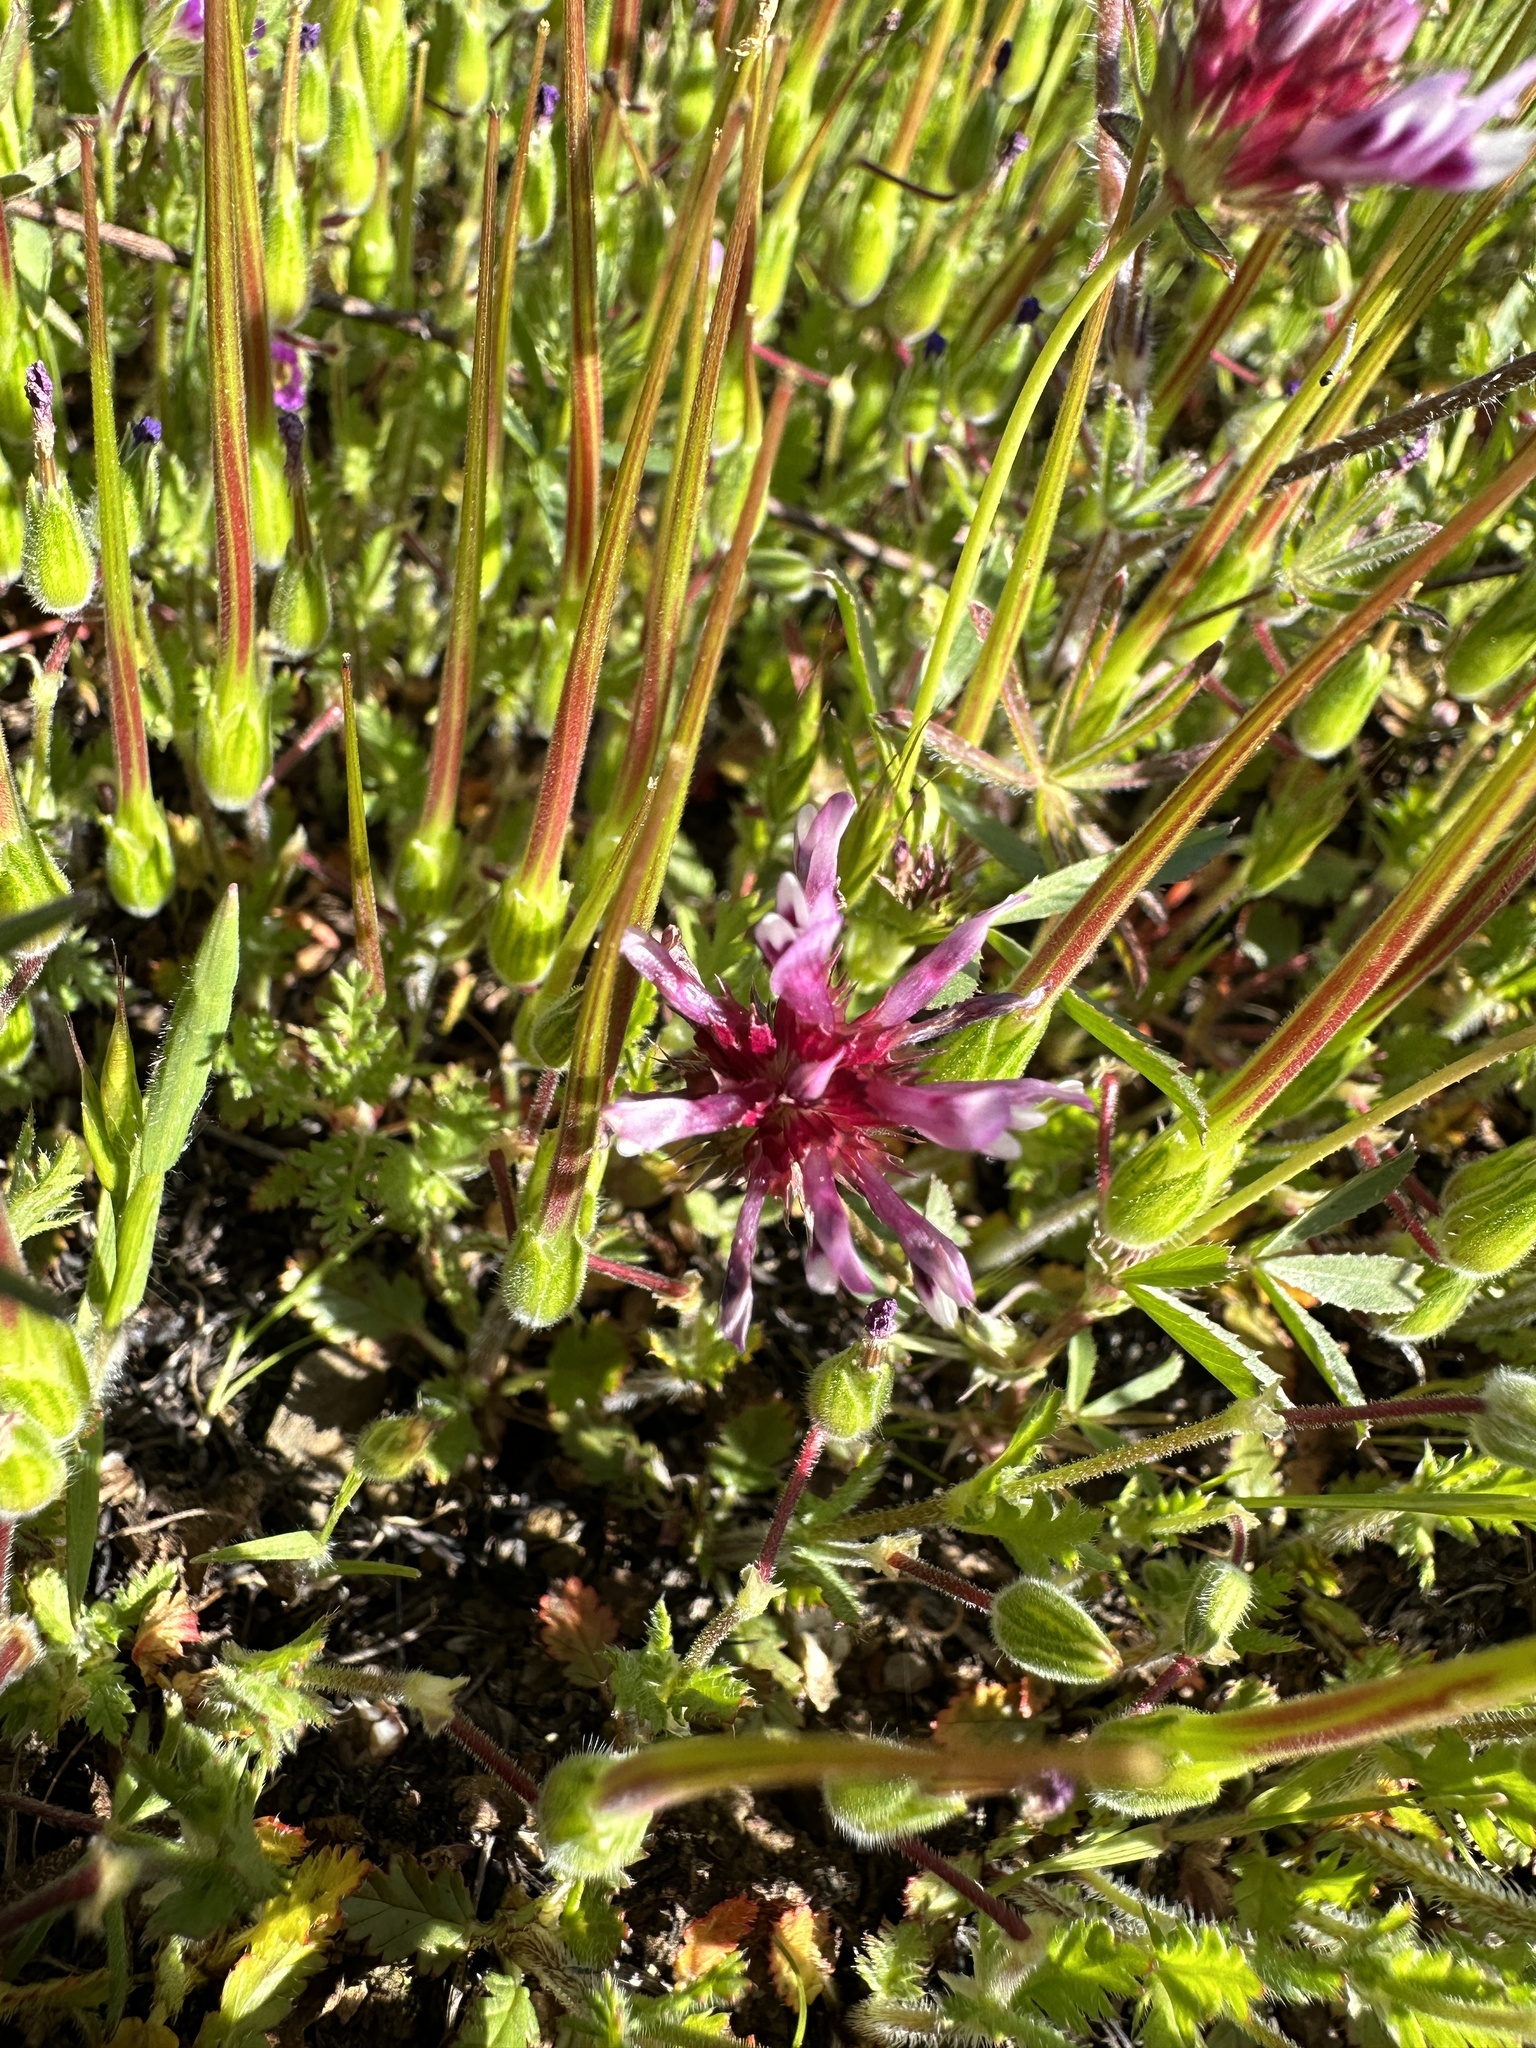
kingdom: Plantae
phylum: Tracheophyta
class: Magnoliopsida
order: Fabales
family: Fabaceae
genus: Trifolium
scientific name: Trifolium willdenovii
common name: Tomcat clover
